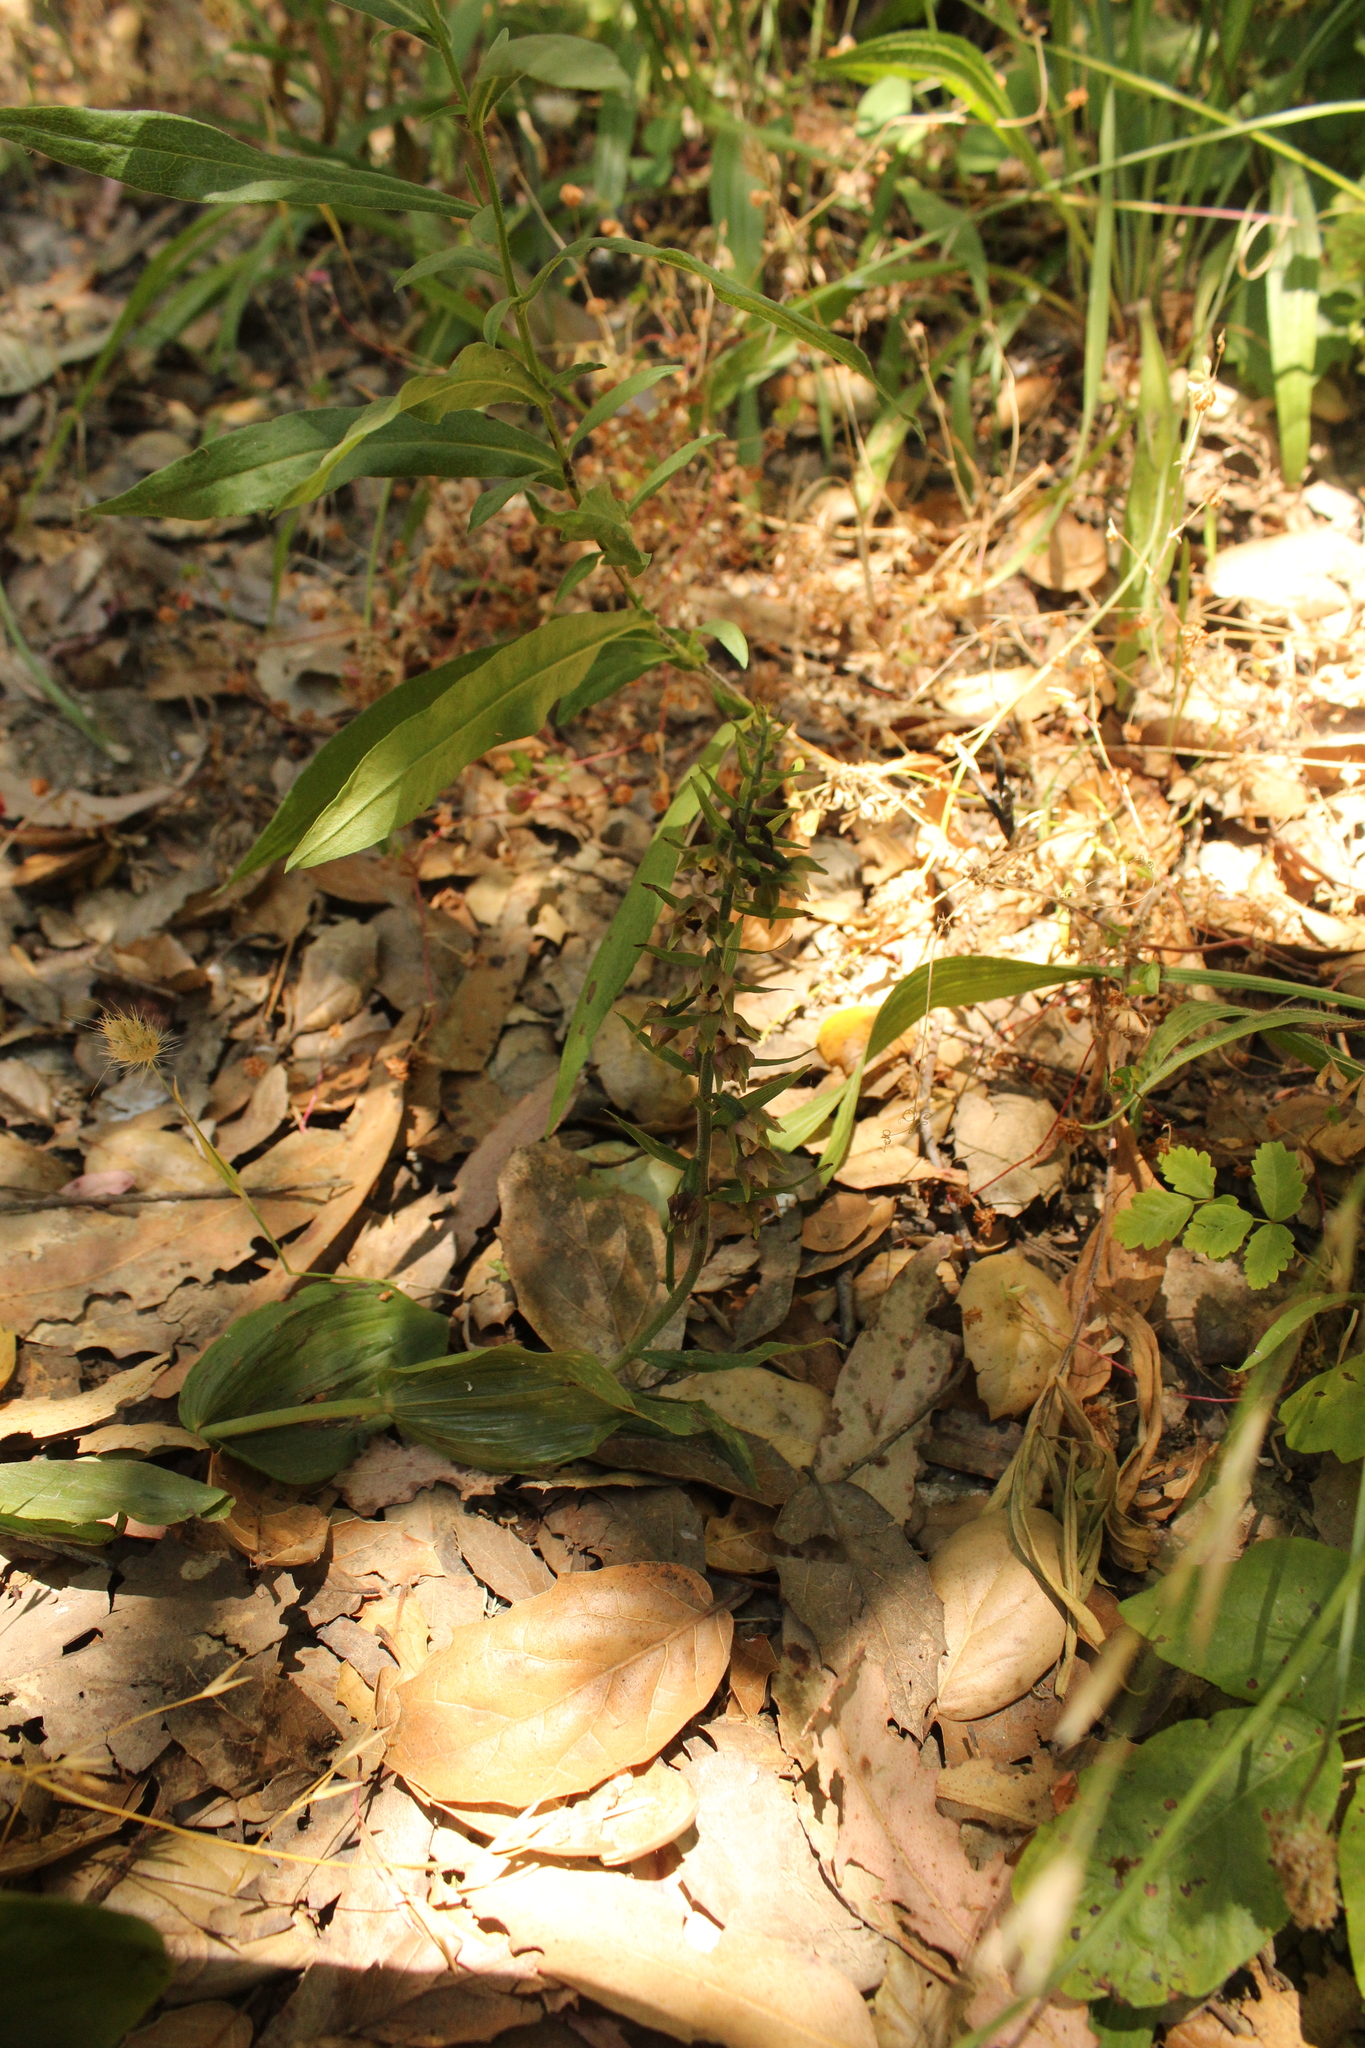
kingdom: Plantae
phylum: Tracheophyta
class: Liliopsida
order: Asparagales
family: Orchidaceae
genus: Epipactis
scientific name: Epipactis helleborine
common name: Broad-leaved helleborine
